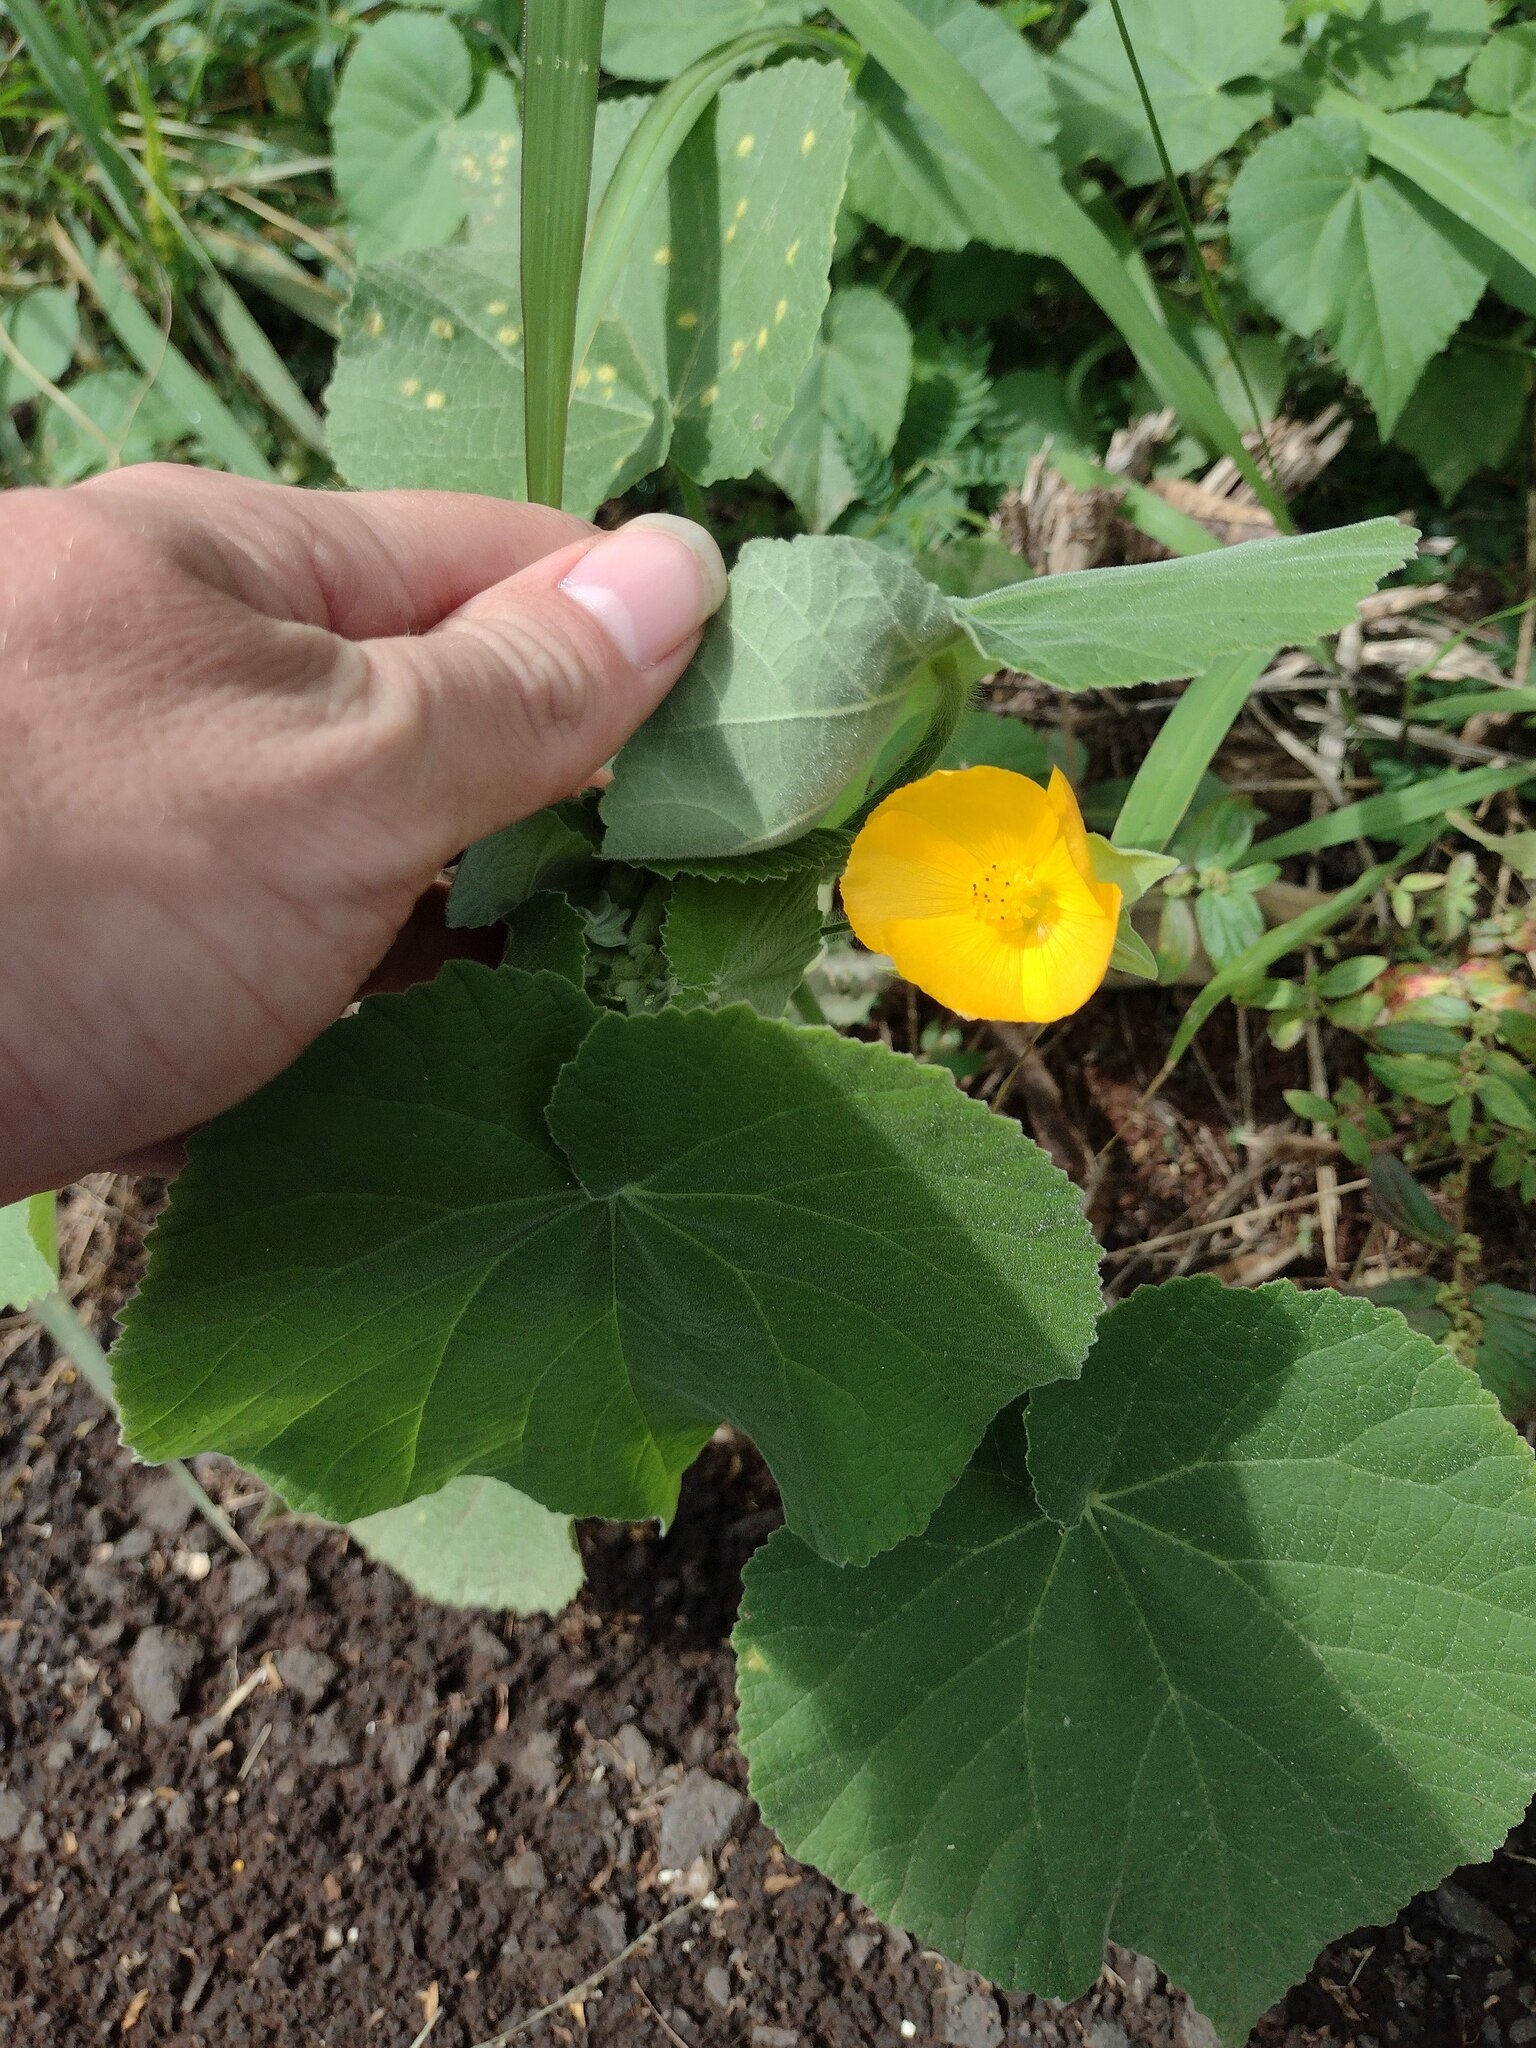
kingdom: Plantae
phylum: Tracheophyta
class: Magnoliopsida
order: Malvales
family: Malvaceae
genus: Abutilon
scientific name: Abutilon grandifolium
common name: Hairy abutilon
